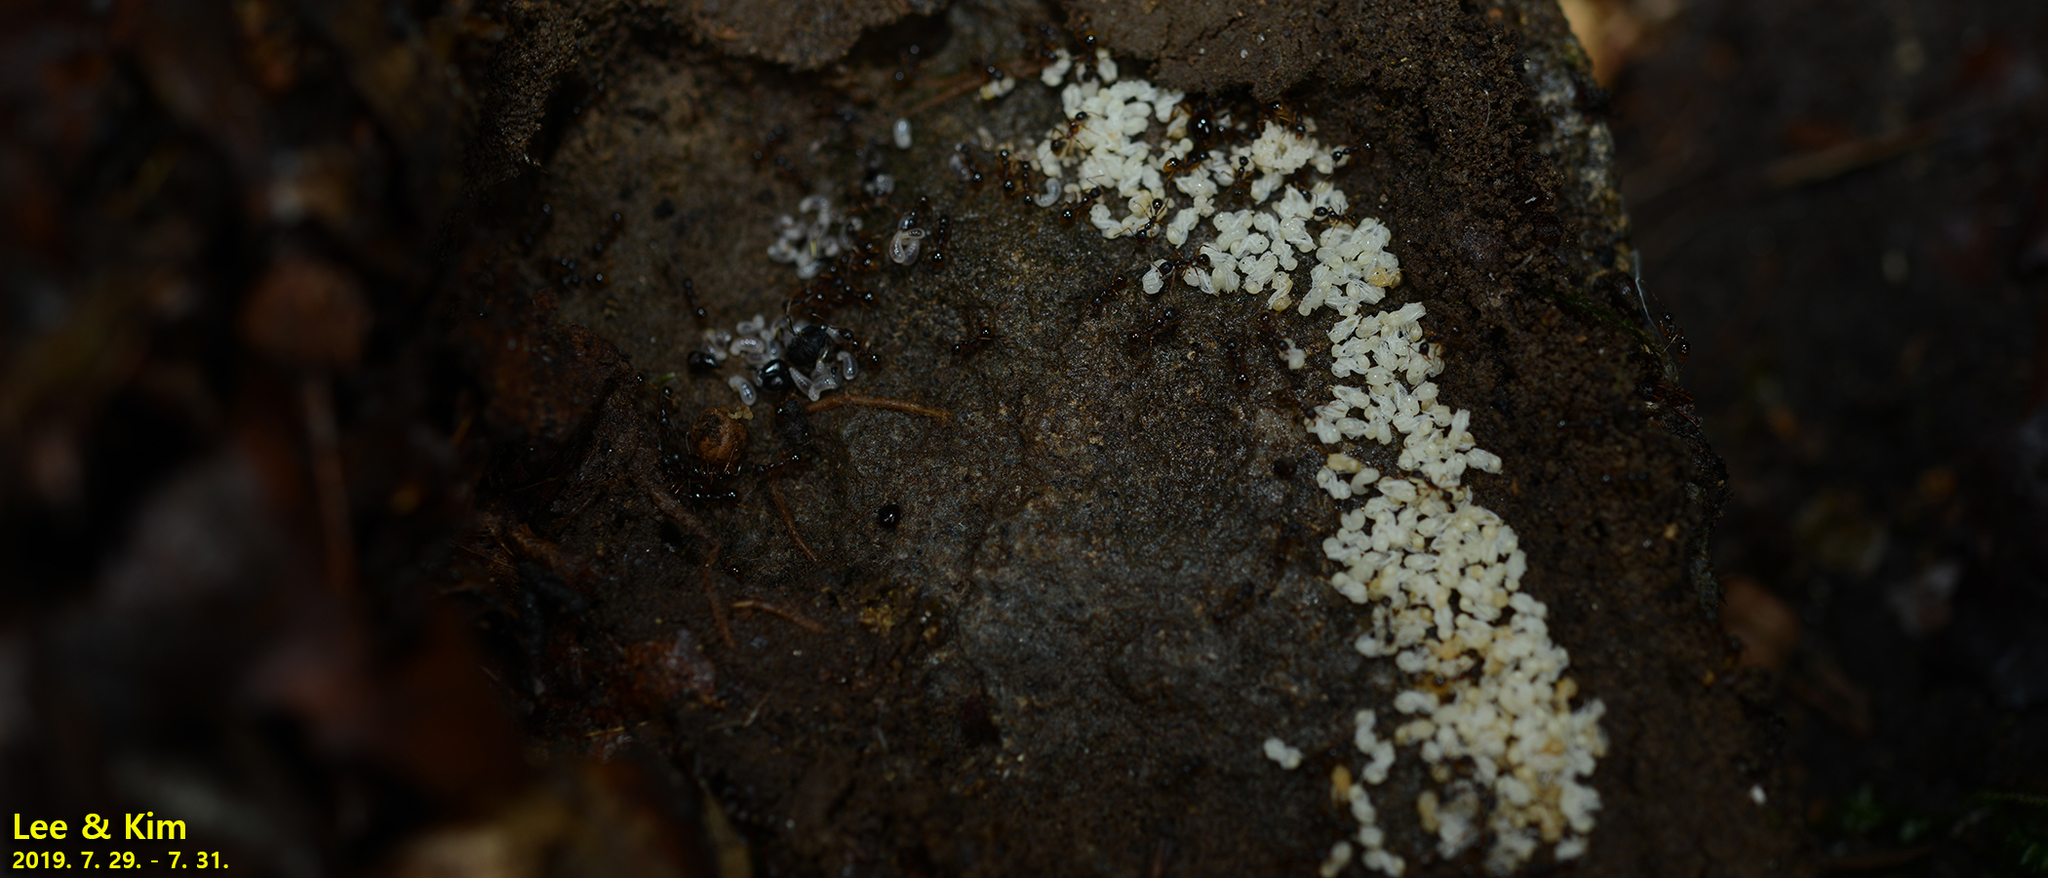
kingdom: Animalia
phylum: Arthropoda
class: Insecta
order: Hymenoptera
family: Formicidae
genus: Aphaenogaster
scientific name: Aphaenogaster japonica
